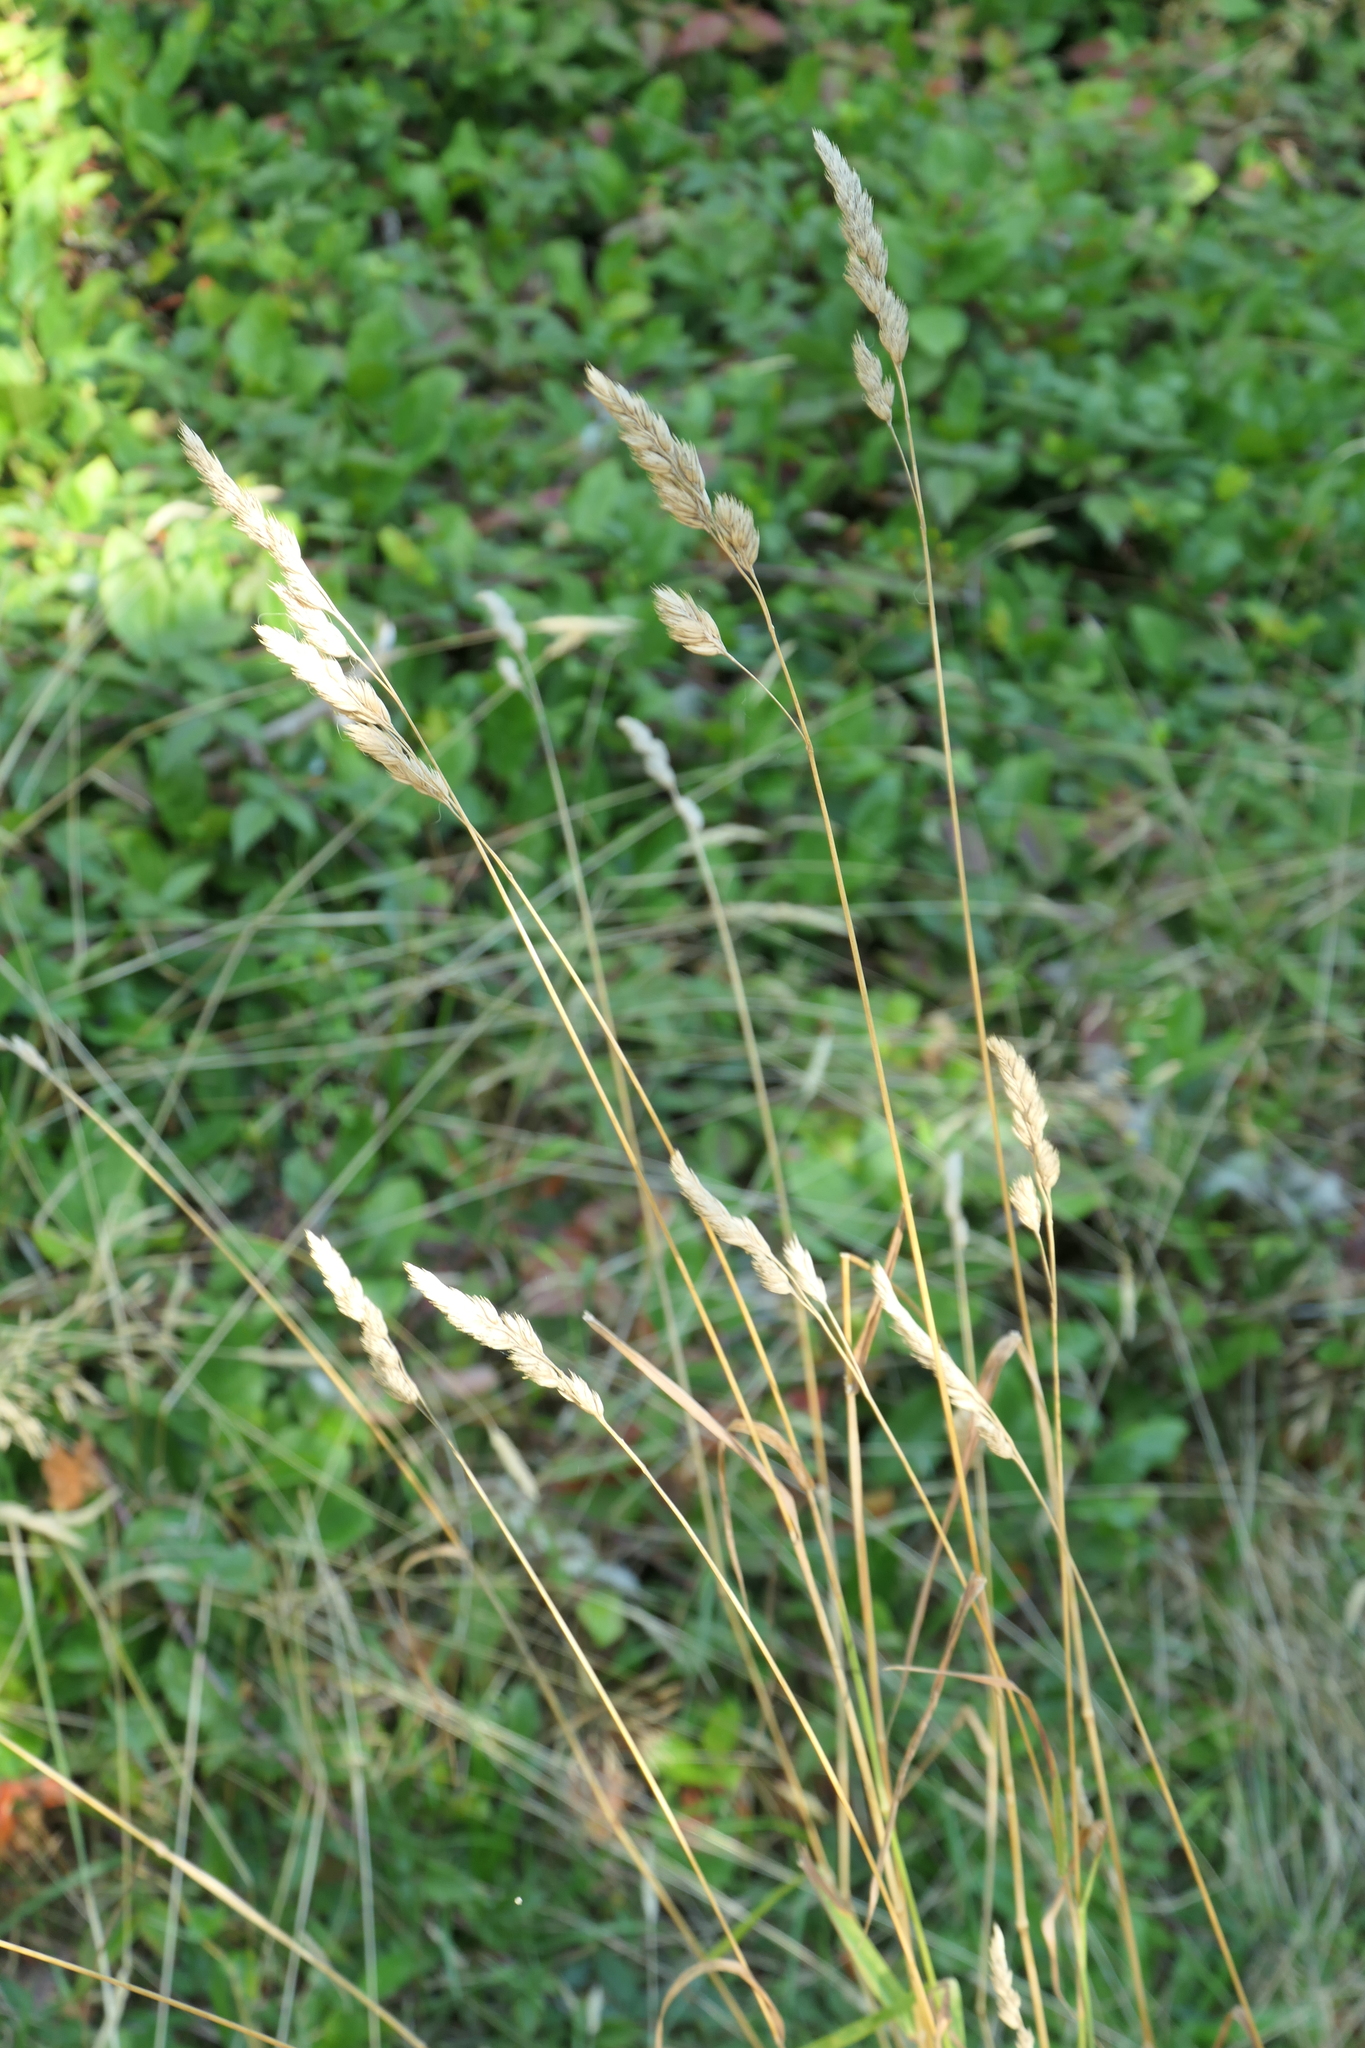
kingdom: Plantae
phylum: Tracheophyta
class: Liliopsida
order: Poales
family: Poaceae
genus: Dactylis
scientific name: Dactylis glomerata
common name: Orchardgrass
